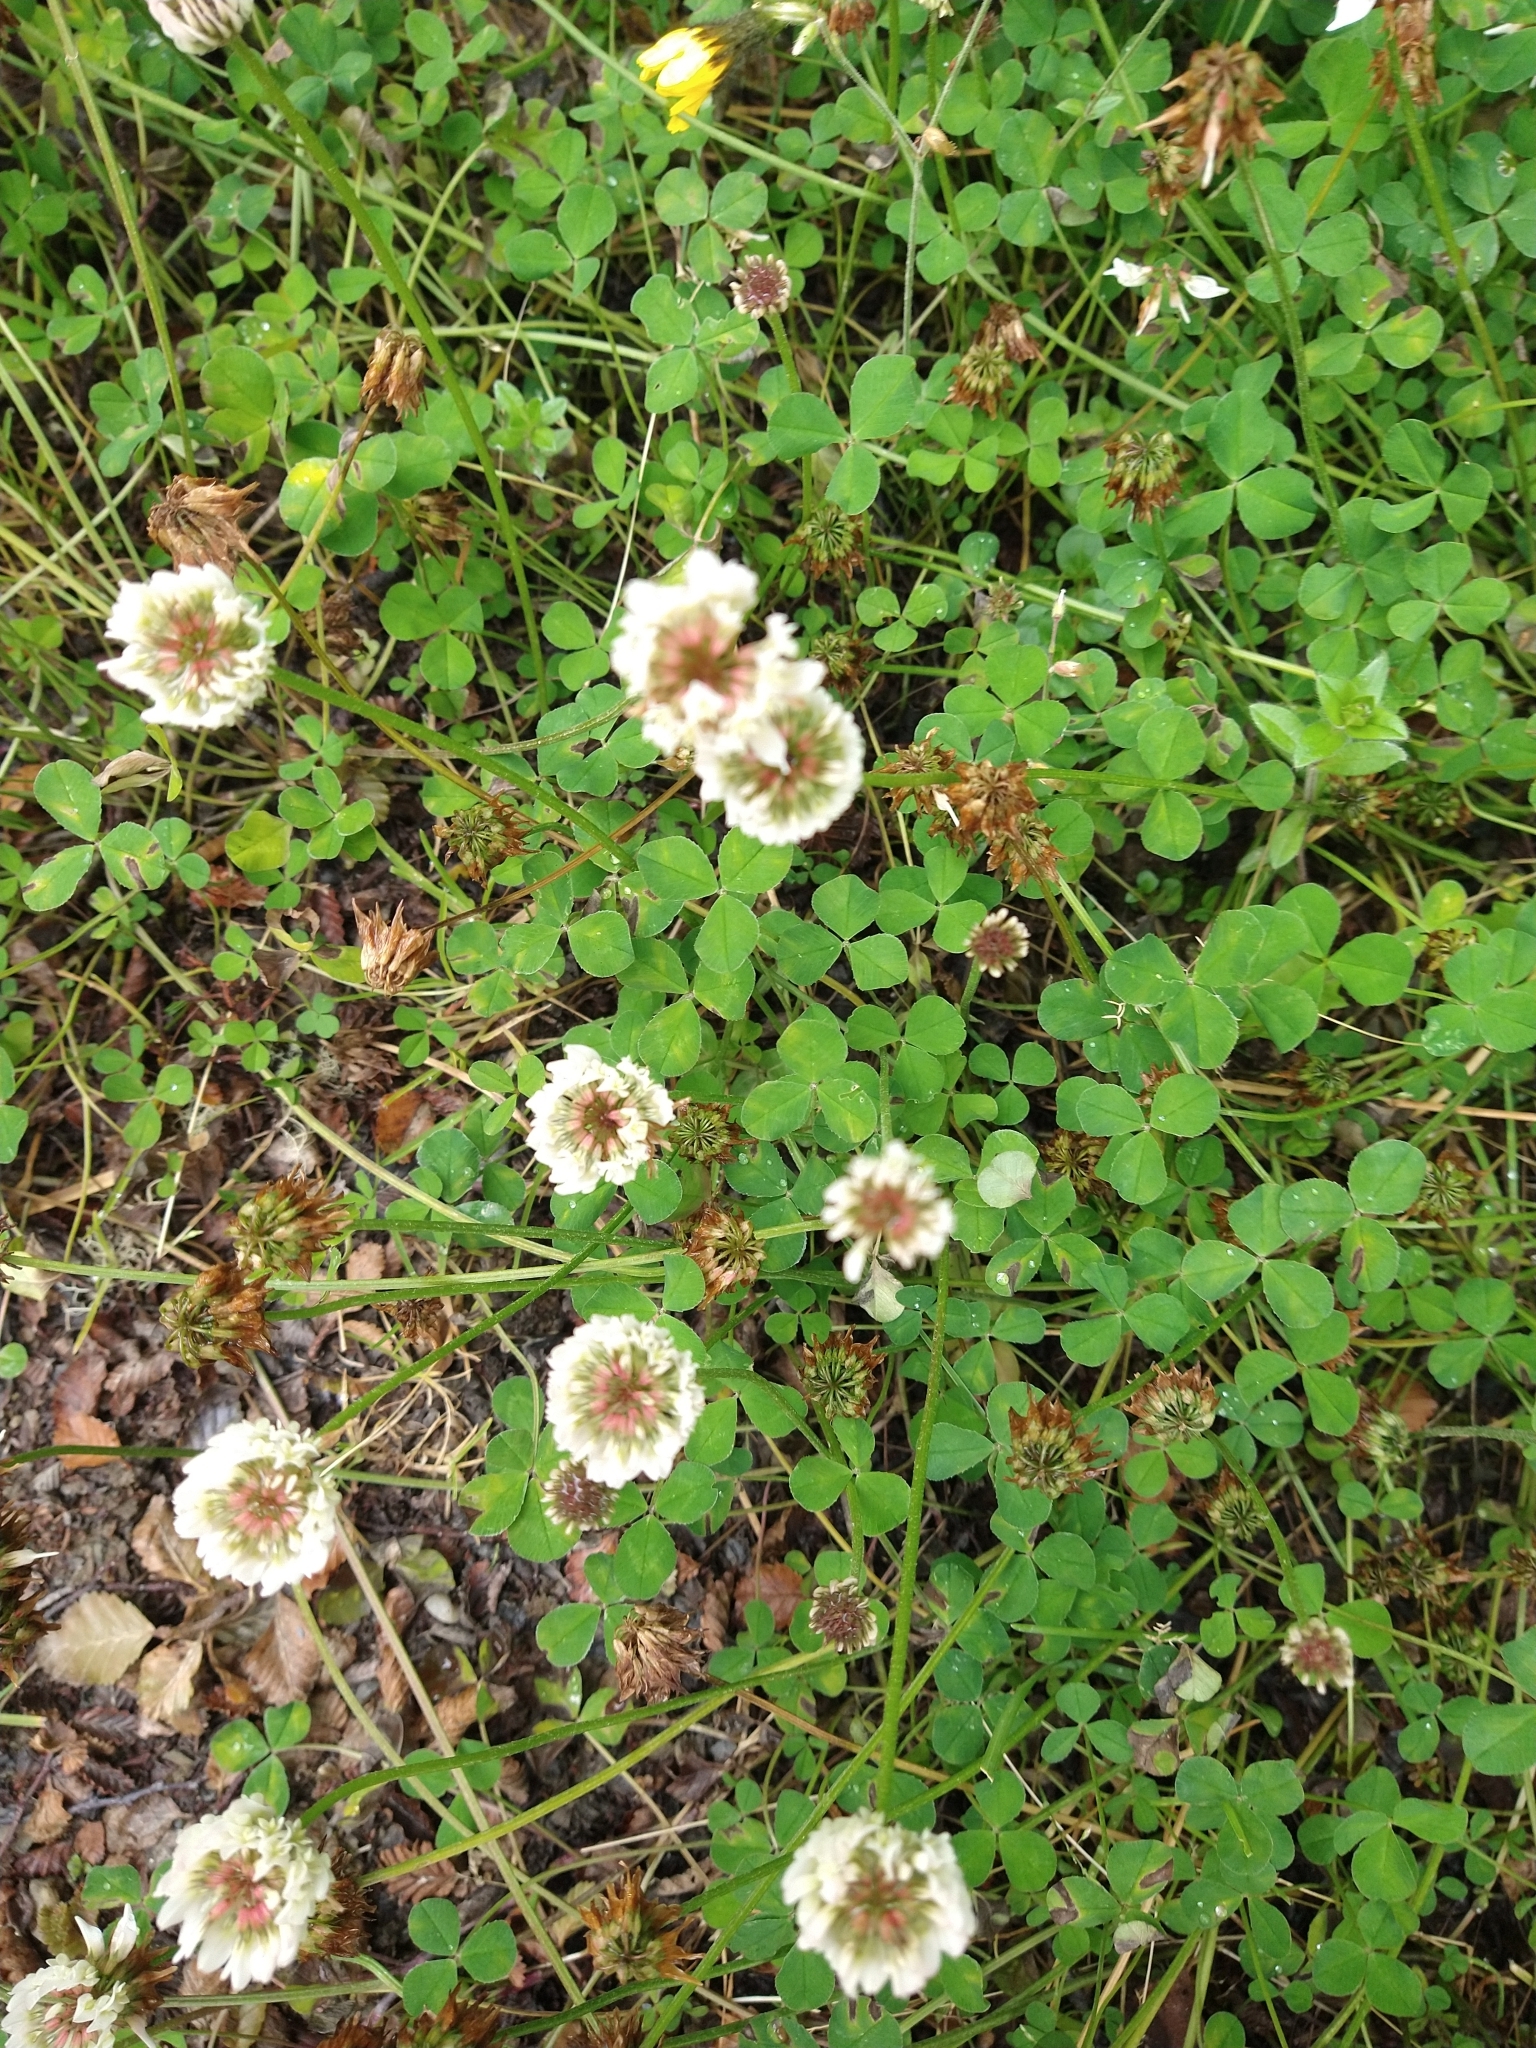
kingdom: Plantae
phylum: Tracheophyta
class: Magnoliopsida
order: Fabales
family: Fabaceae
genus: Trifolium
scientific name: Trifolium repens
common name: White clover
